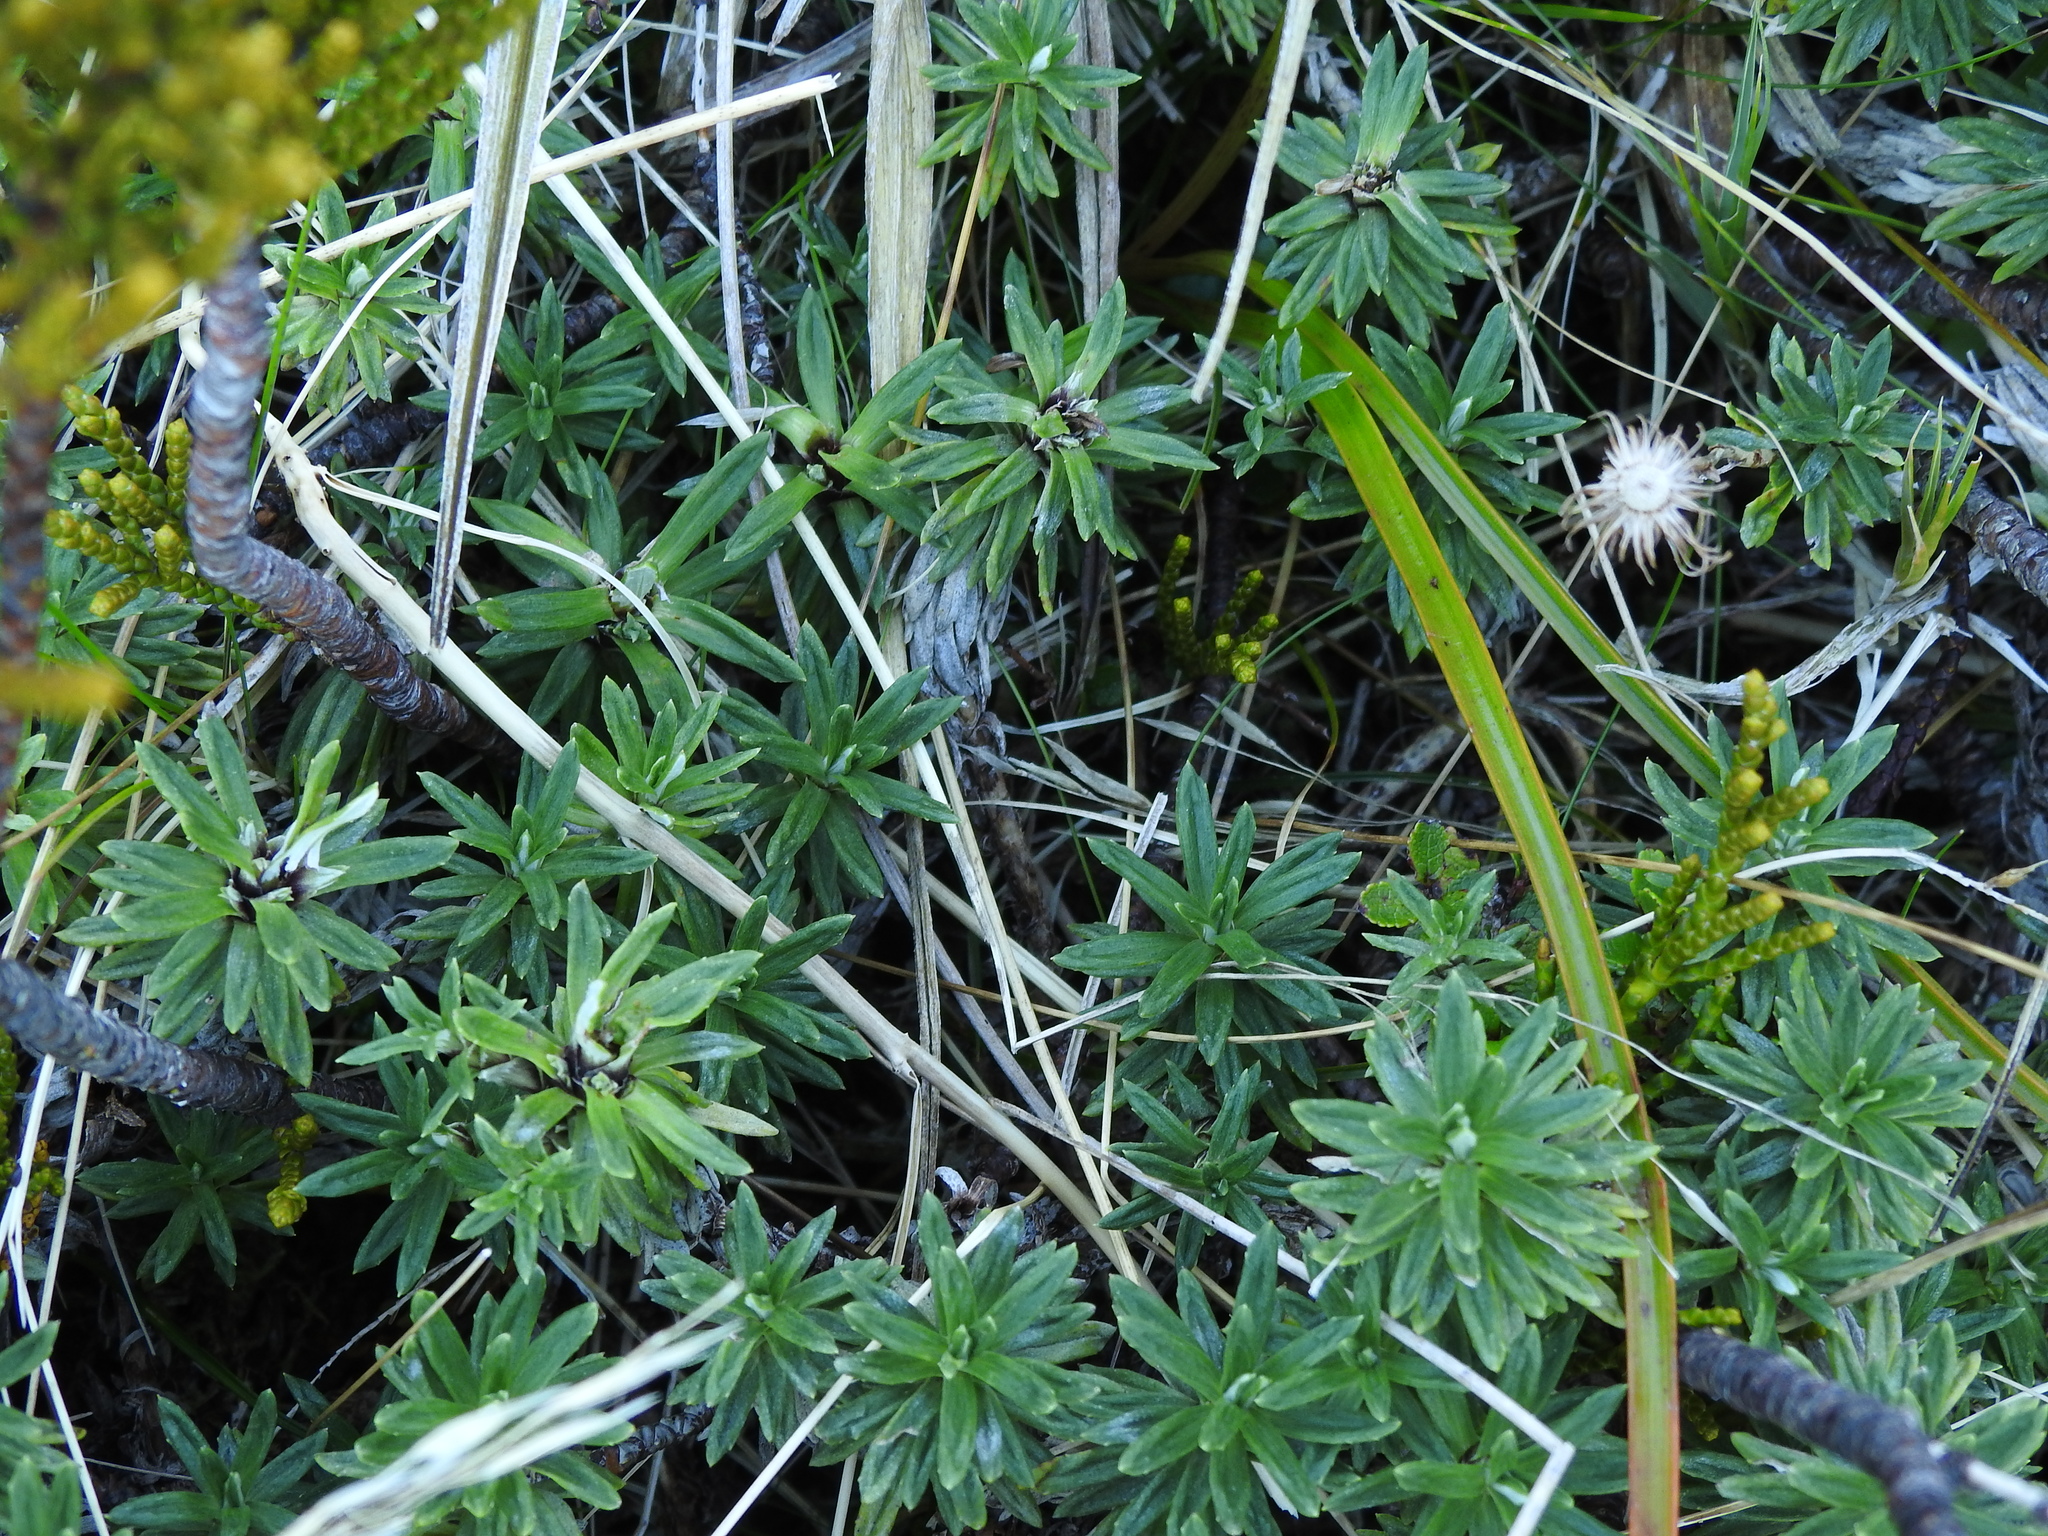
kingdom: Plantae
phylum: Tracheophyta
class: Magnoliopsida
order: Asterales
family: Asteraceae
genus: Celmisia
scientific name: Celmisia walkeri
